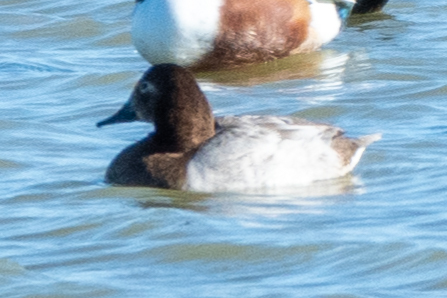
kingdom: Animalia
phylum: Chordata
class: Aves
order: Anseriformes
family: Anatidae
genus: Aythya
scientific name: Aythya valisineria
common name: Canvasback
